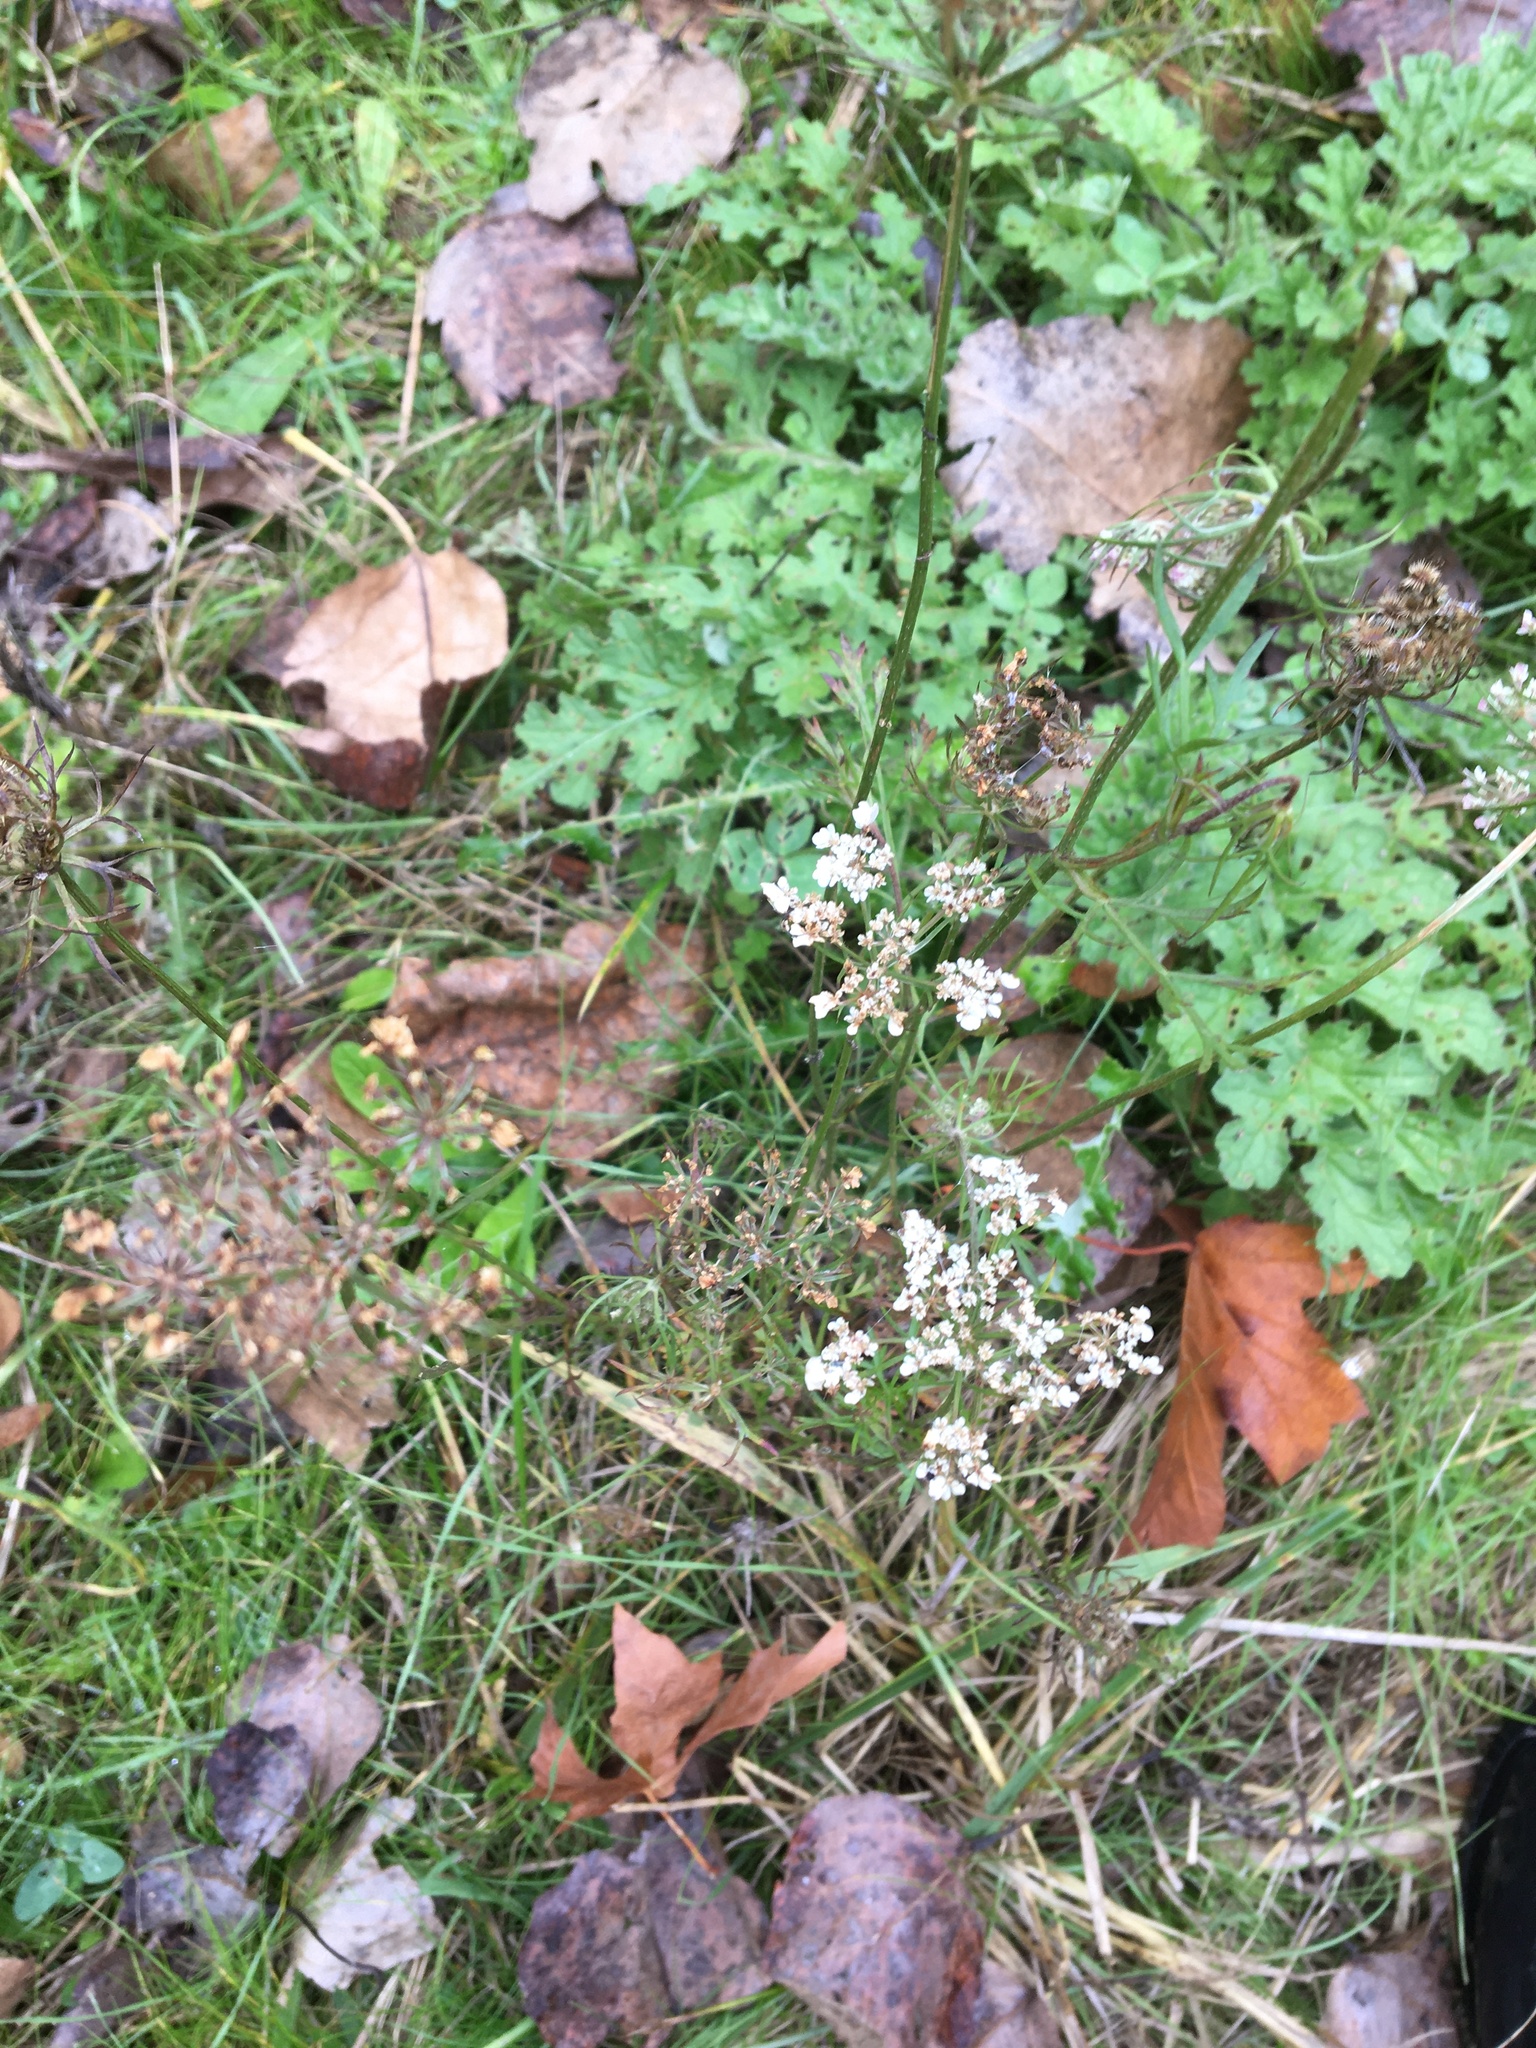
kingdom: Plantae
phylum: Tracheophyta
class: Magnoliopsida
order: Apiales
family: Apiaceae
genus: Daucus
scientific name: Daucus carota
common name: Wild carrot
